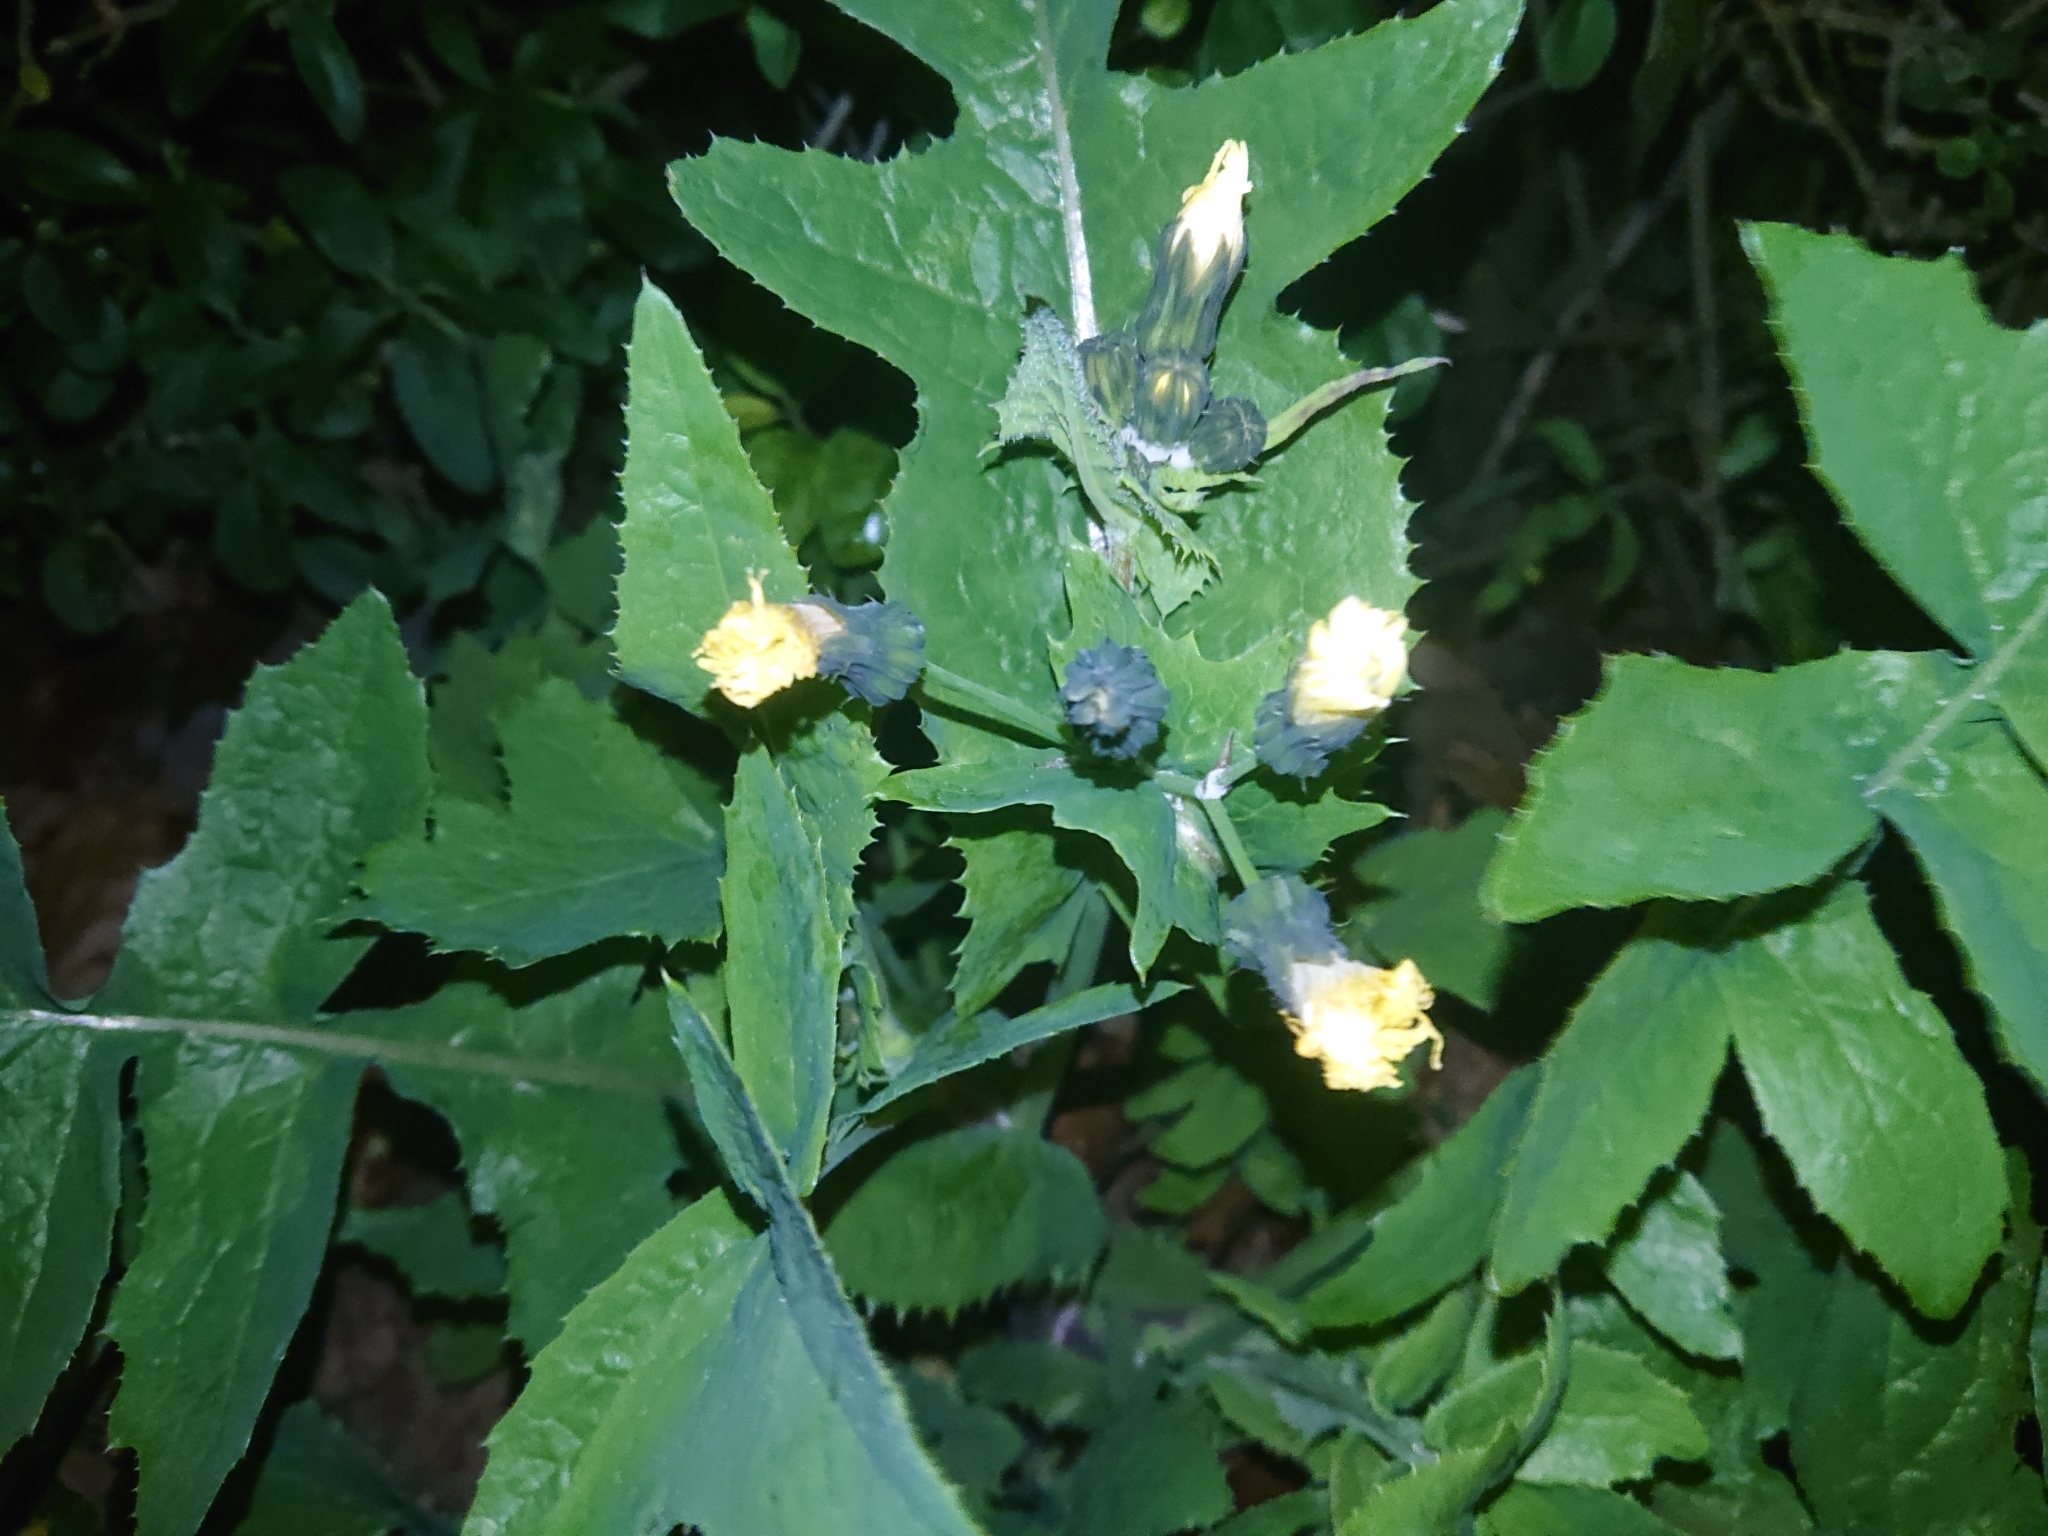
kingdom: Plantae
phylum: Tracheophyta
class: Magnoliopsida
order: Asterales
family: Asteraceae
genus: Sonchus
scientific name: Sonchus oleraceus
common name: Common sowthistle
